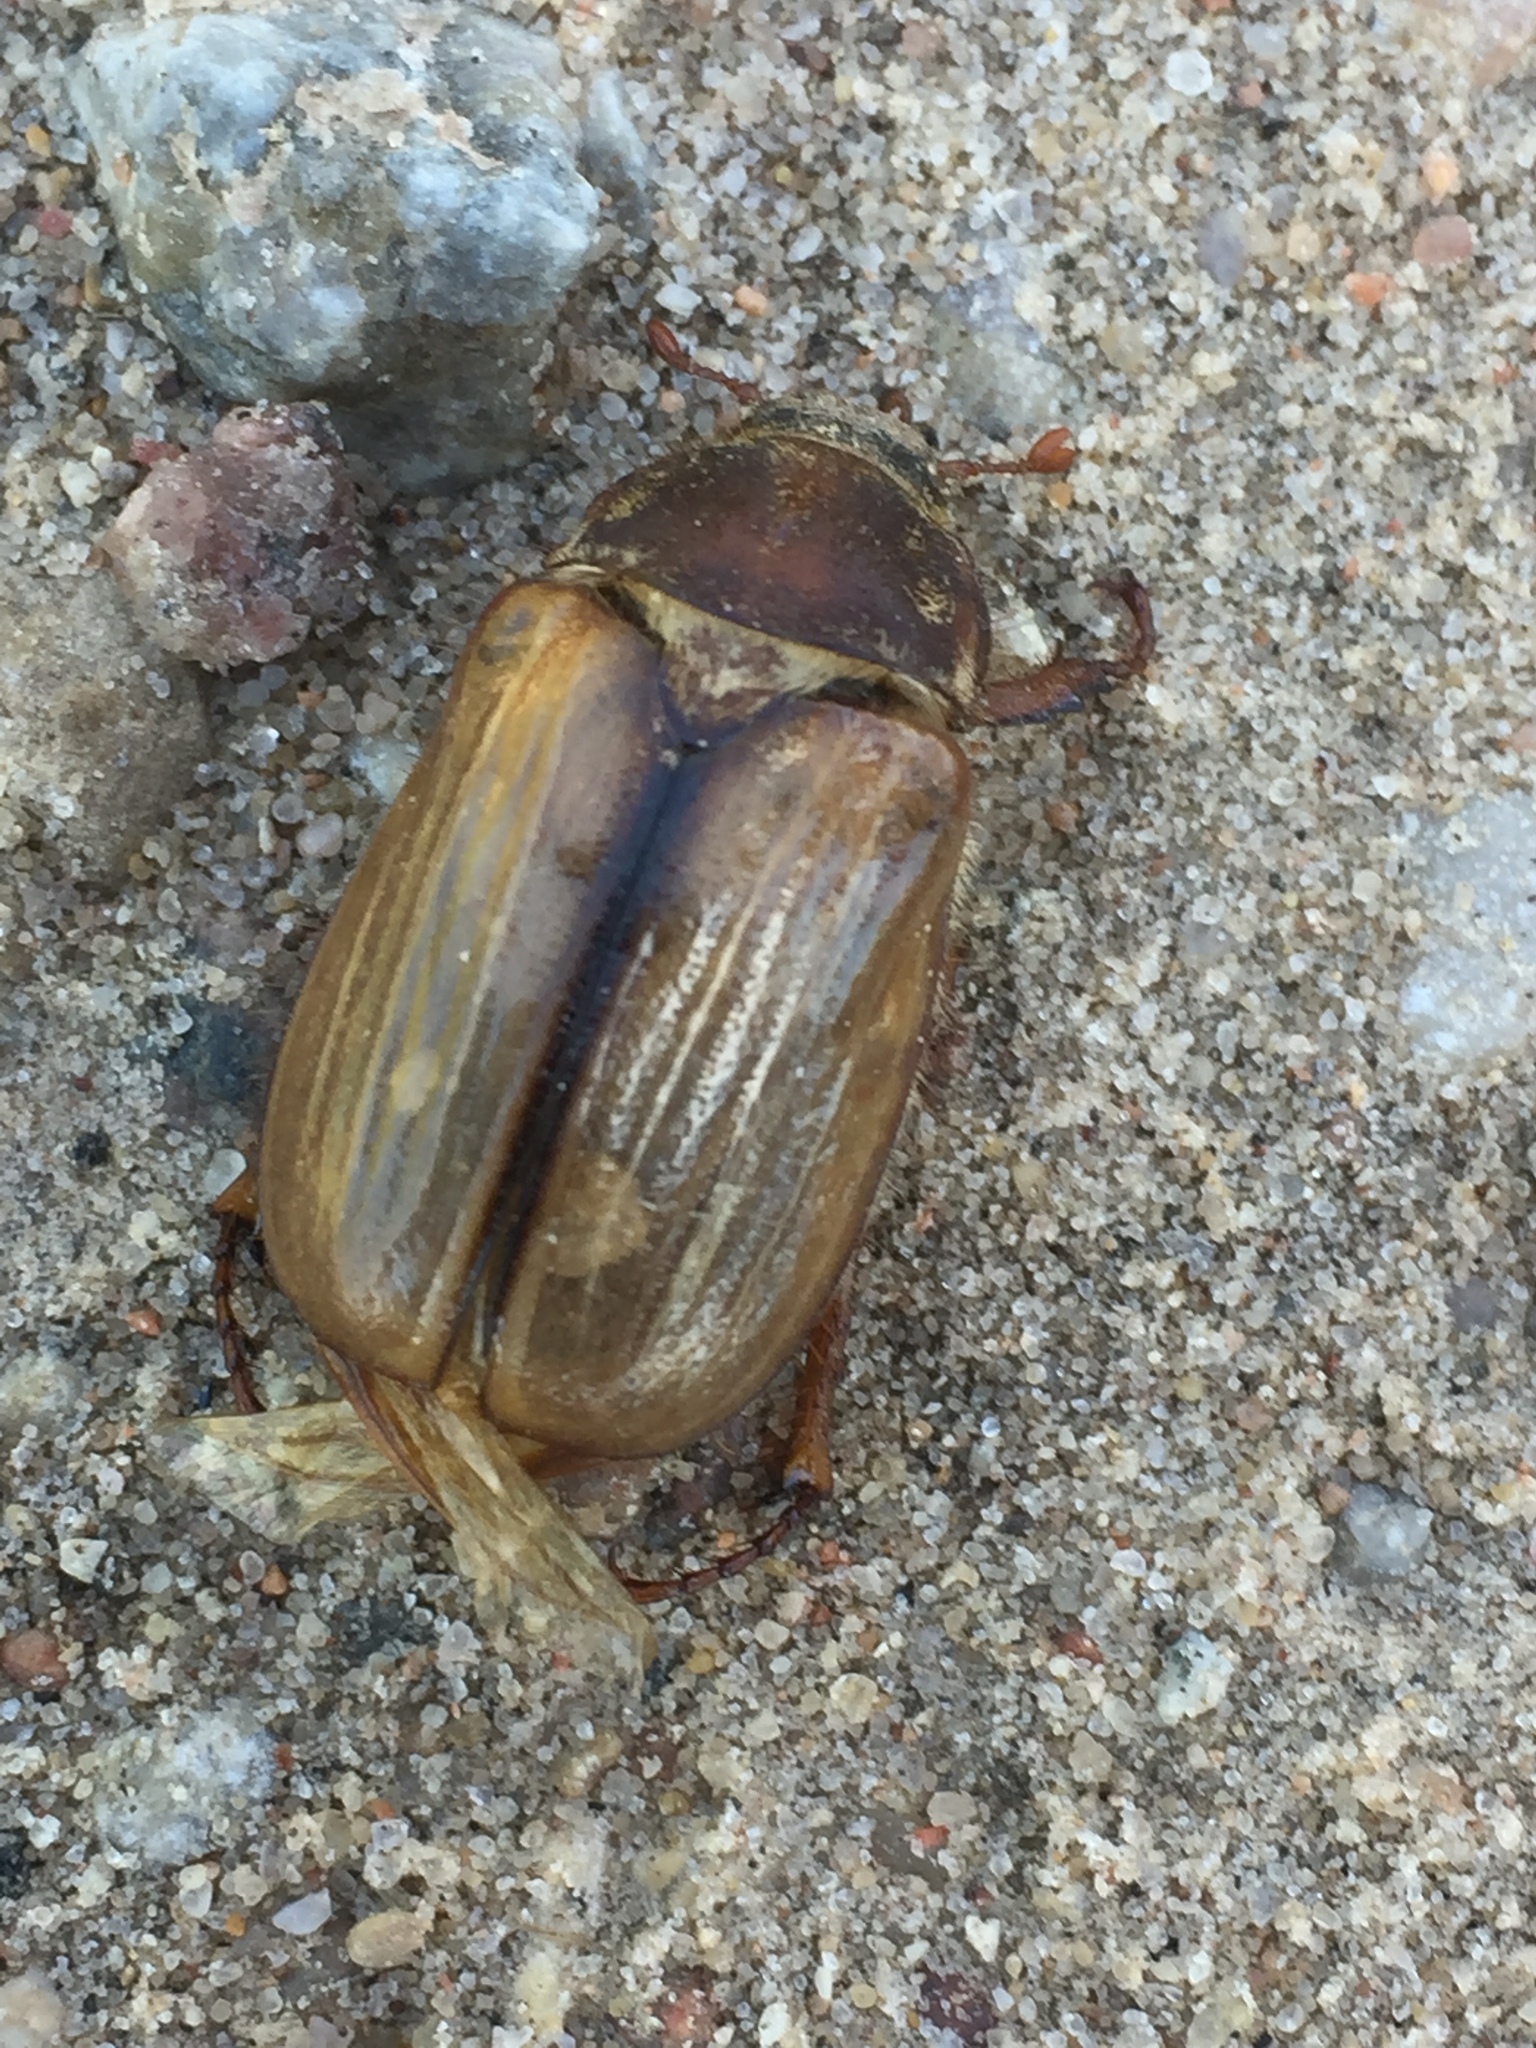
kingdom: Animalia
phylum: Arthropoda
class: Insecta
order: Coleoptera
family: Scarabaeidae
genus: Amphimallon
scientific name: Amphimallon solstitiale
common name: Summer chafer
